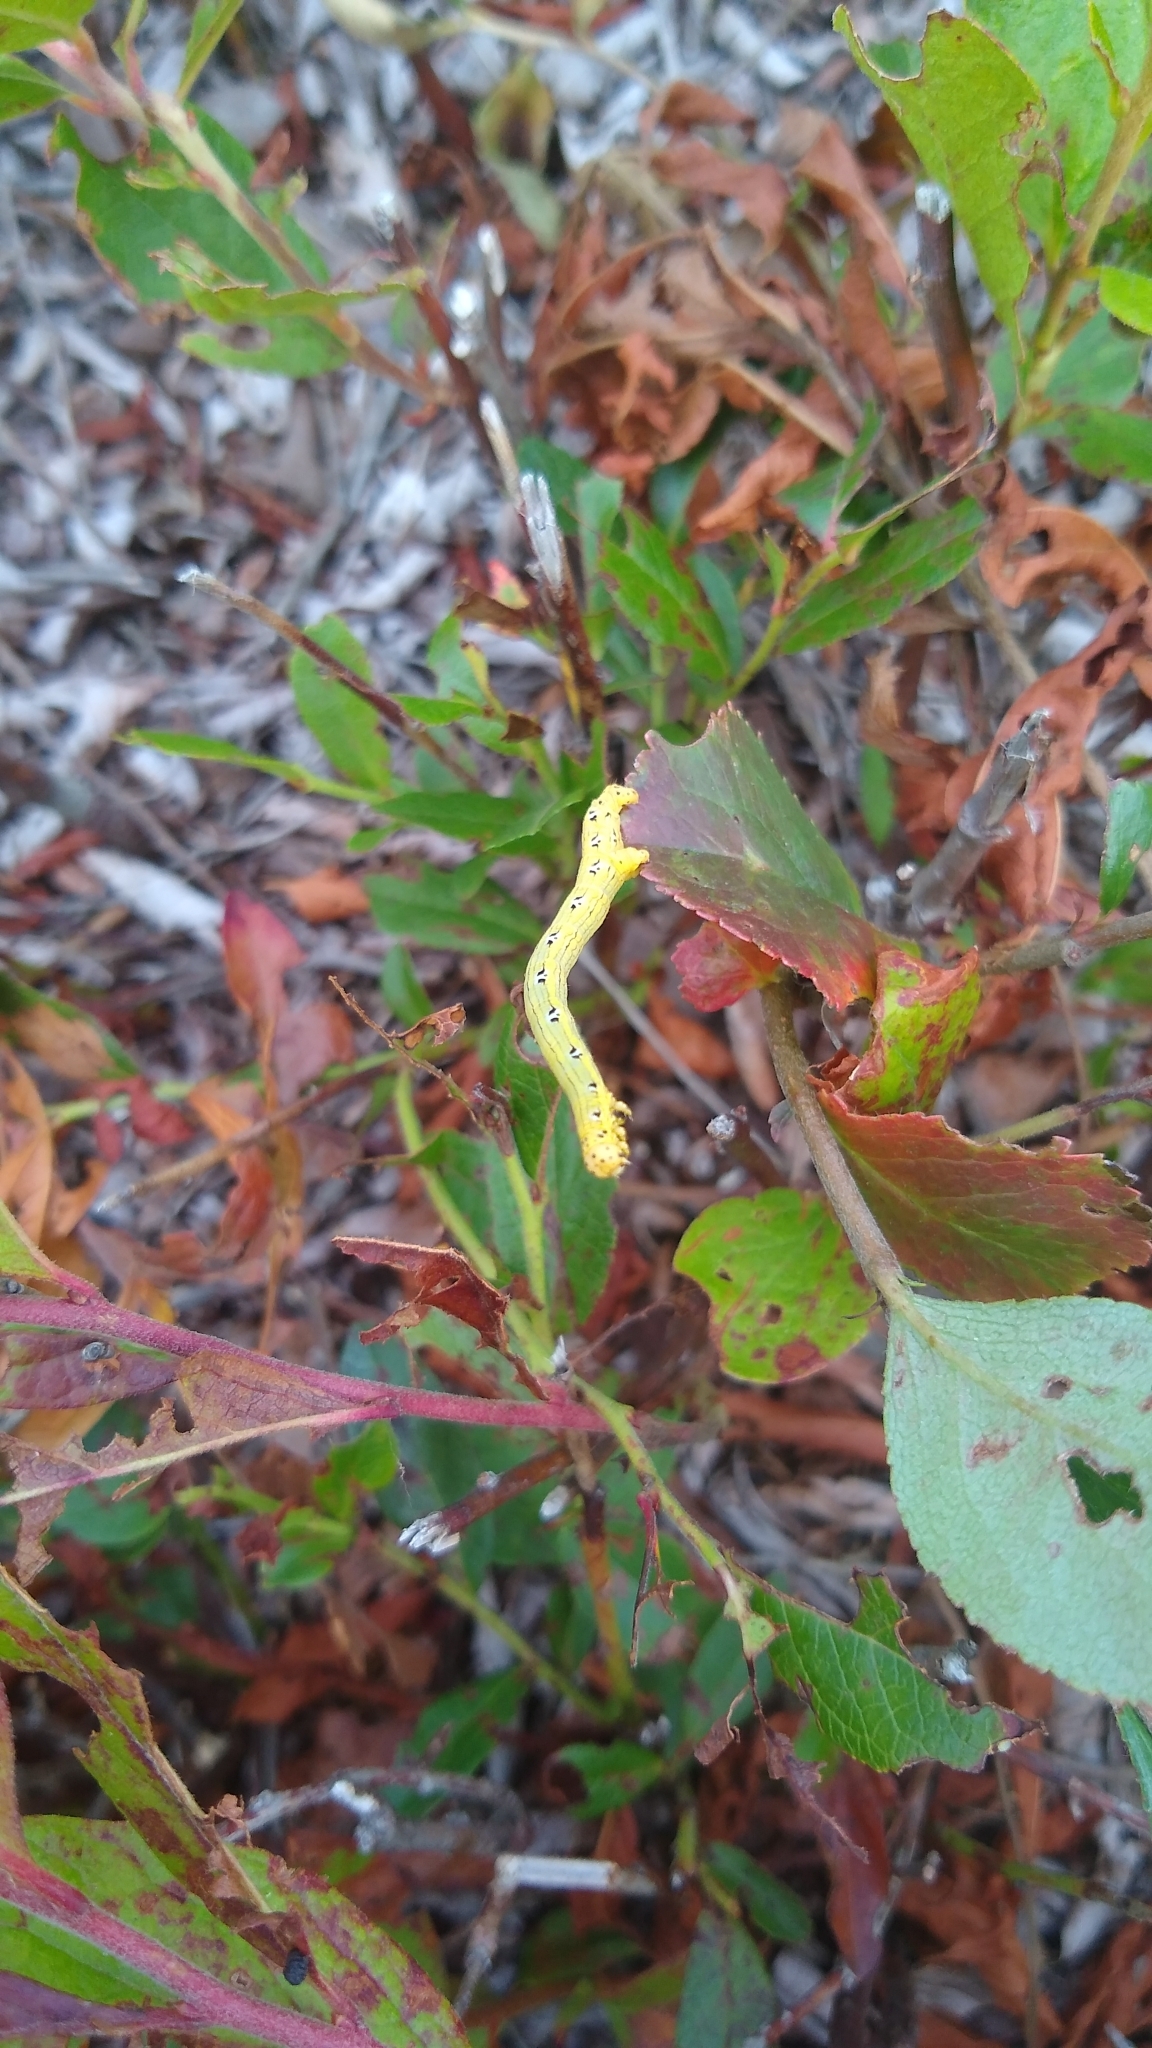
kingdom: Animalia
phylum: Arthropoda
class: Insecta
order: Lepidoptera
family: Geometridae
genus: Cingilia
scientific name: Cingilia catenaria
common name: Chain-dotted geometer
